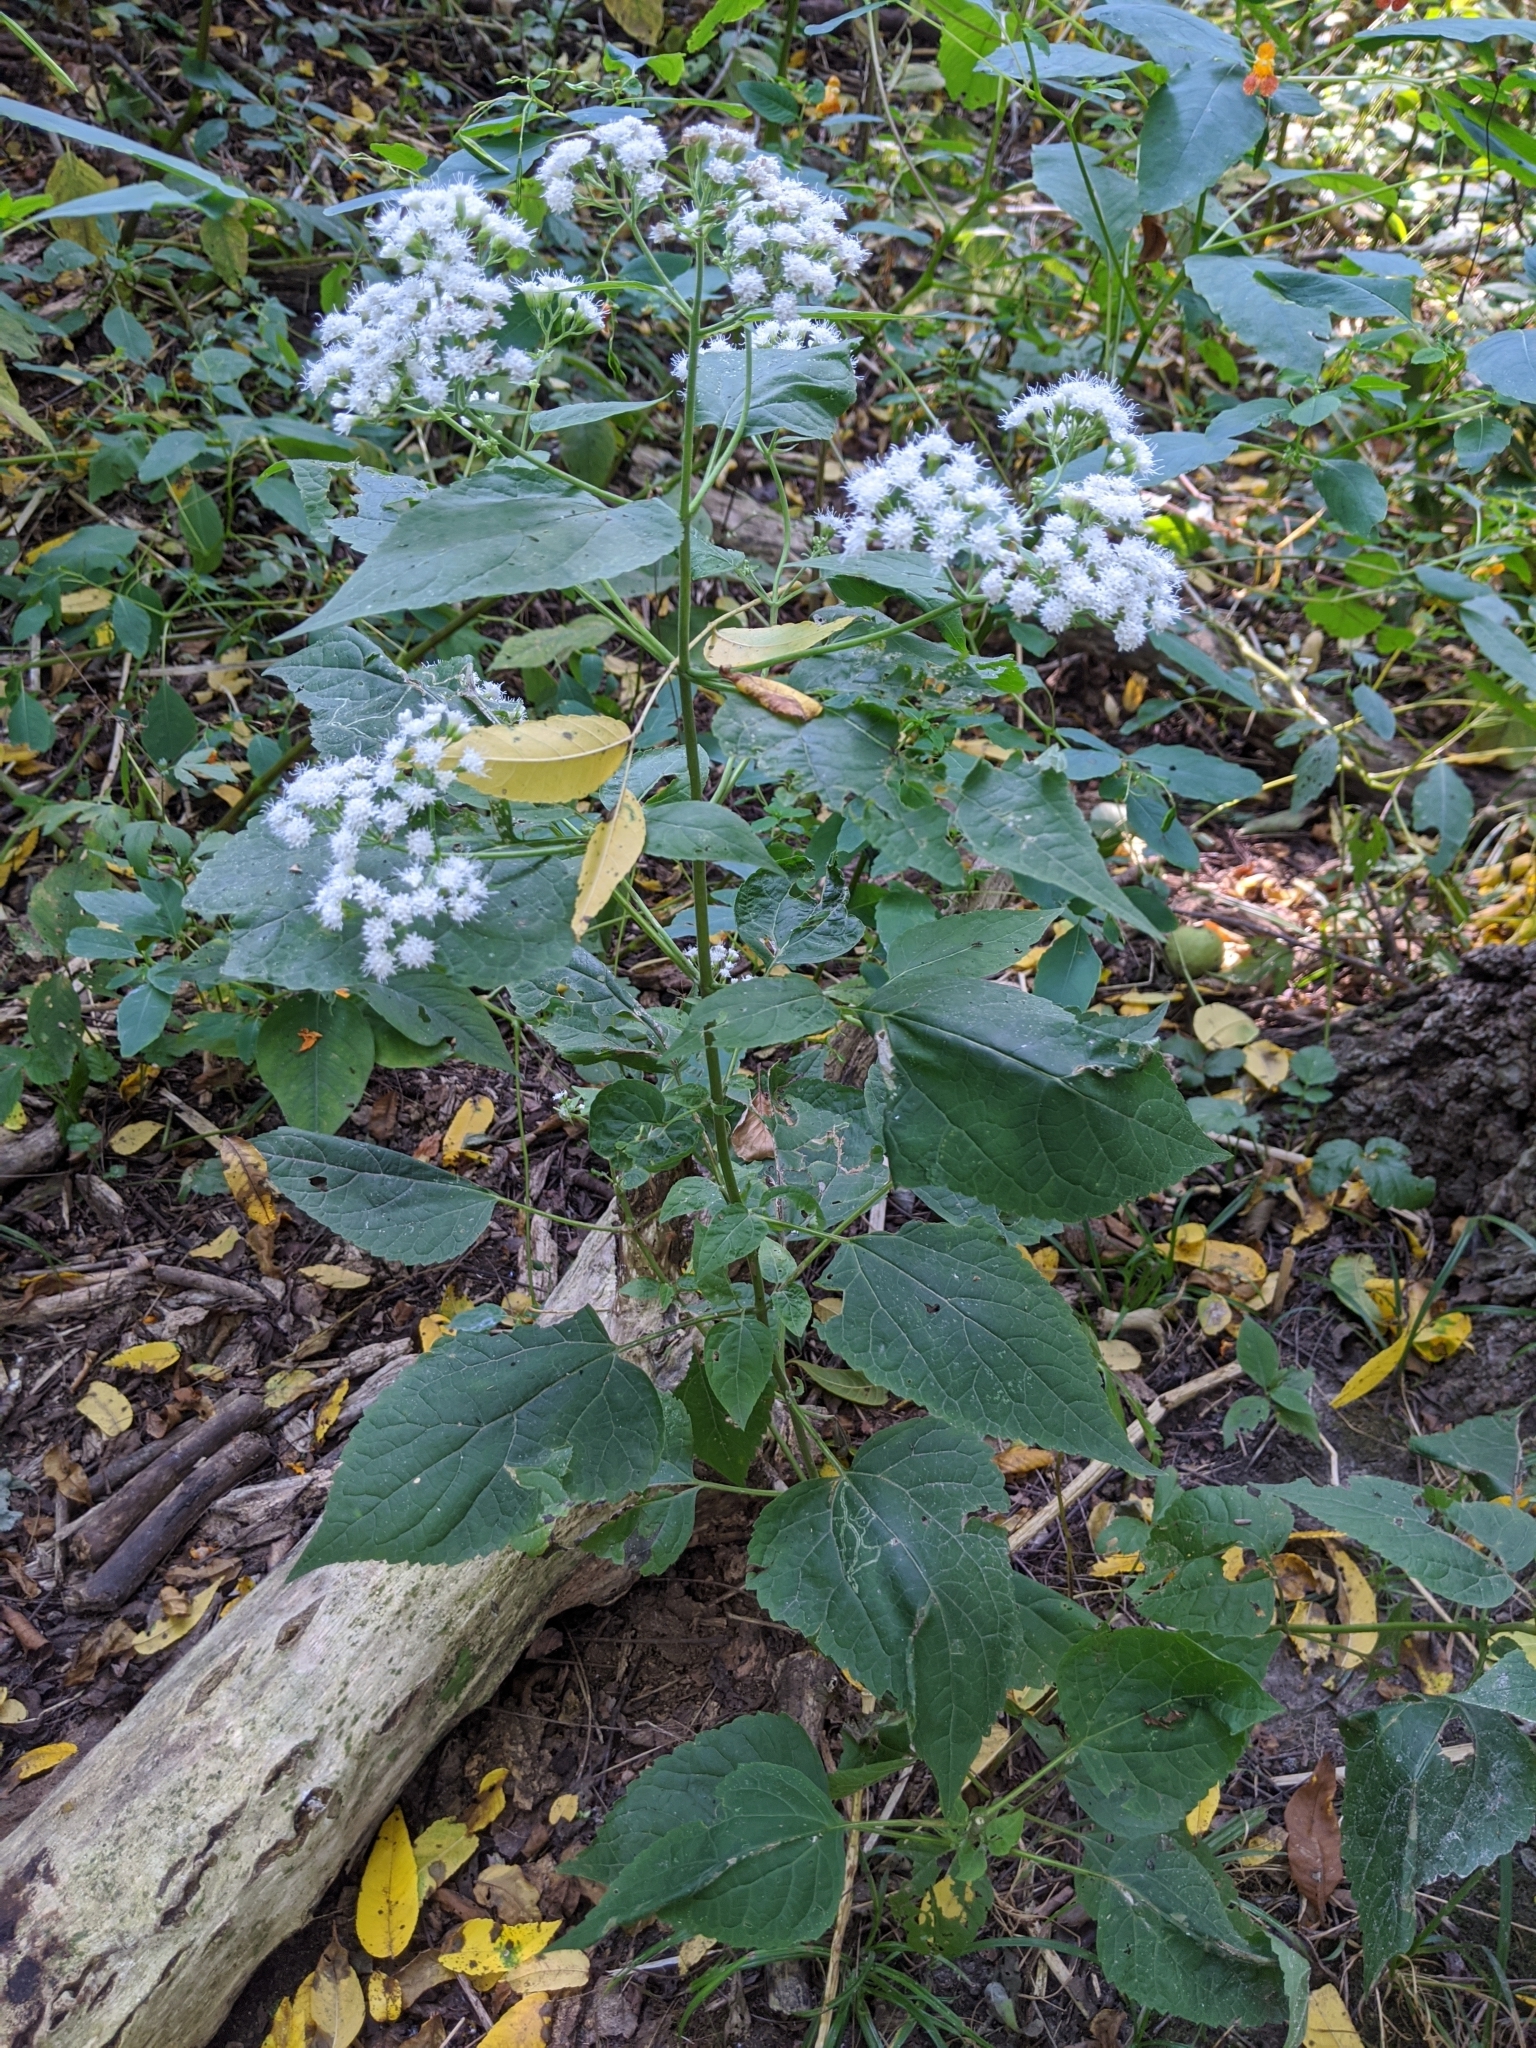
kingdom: Plantae
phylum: Tracheophyta
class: Magnoliopsida
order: Asterales
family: Asteraceae
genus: Ageratina
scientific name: Ageratina altissima
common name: White snakeroot
